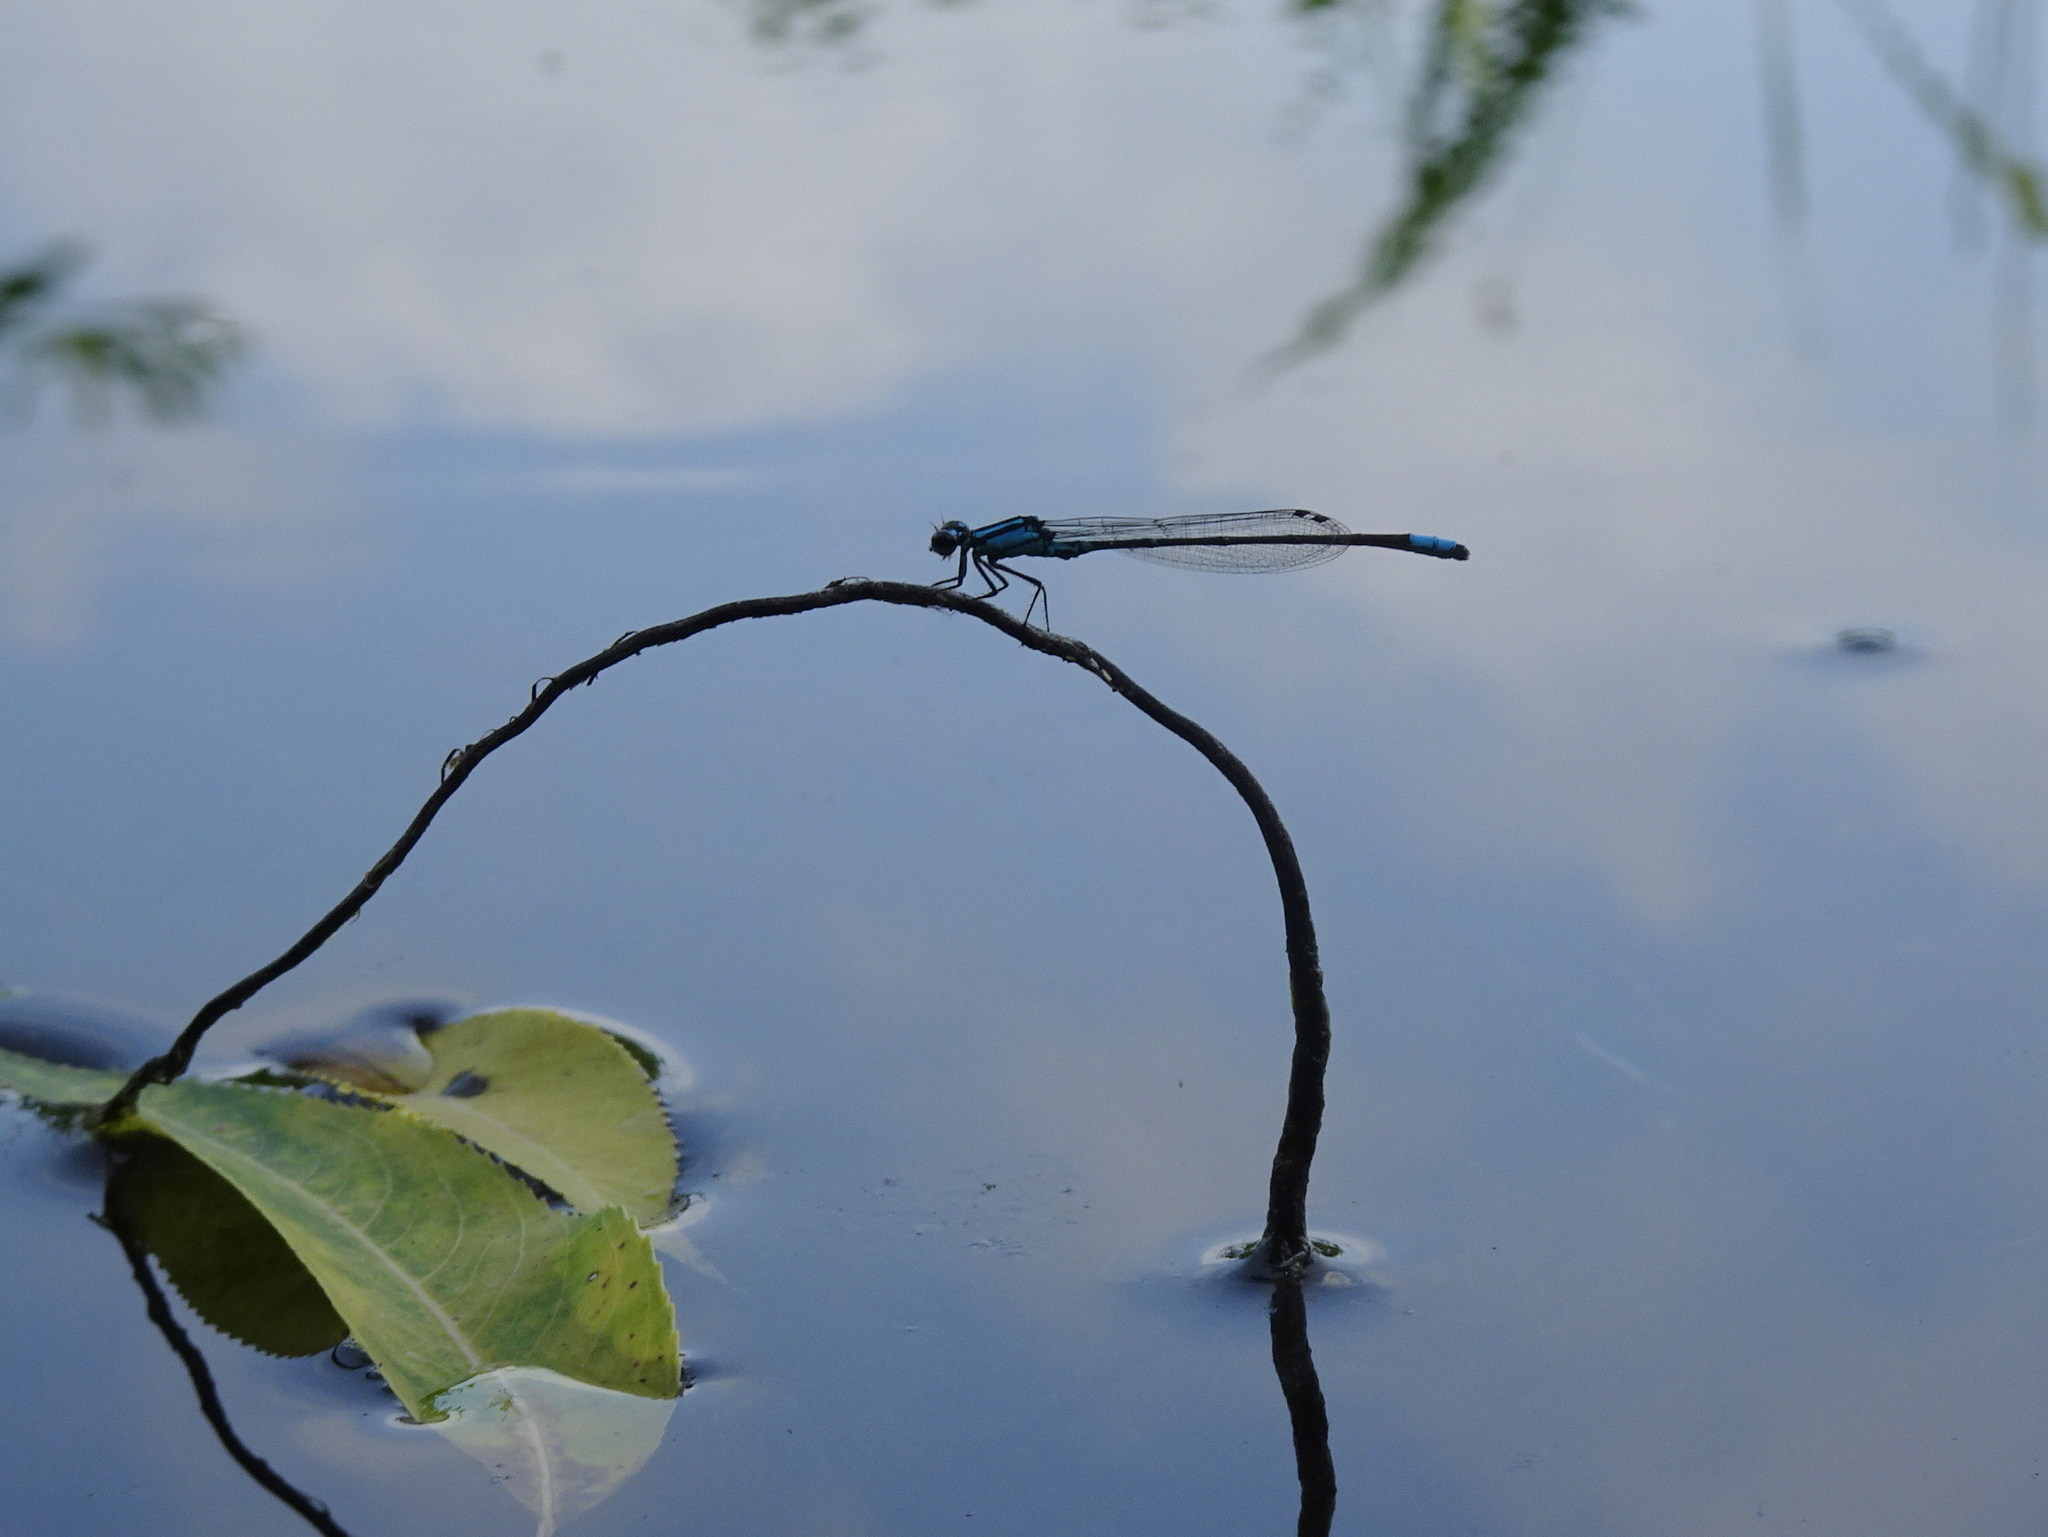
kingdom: Animalia
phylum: Arthropoda
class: Insecta
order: Odonata
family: Coenagrionidae
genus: Enallagma
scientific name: Enallagma geminatum
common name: Skimming bluet
